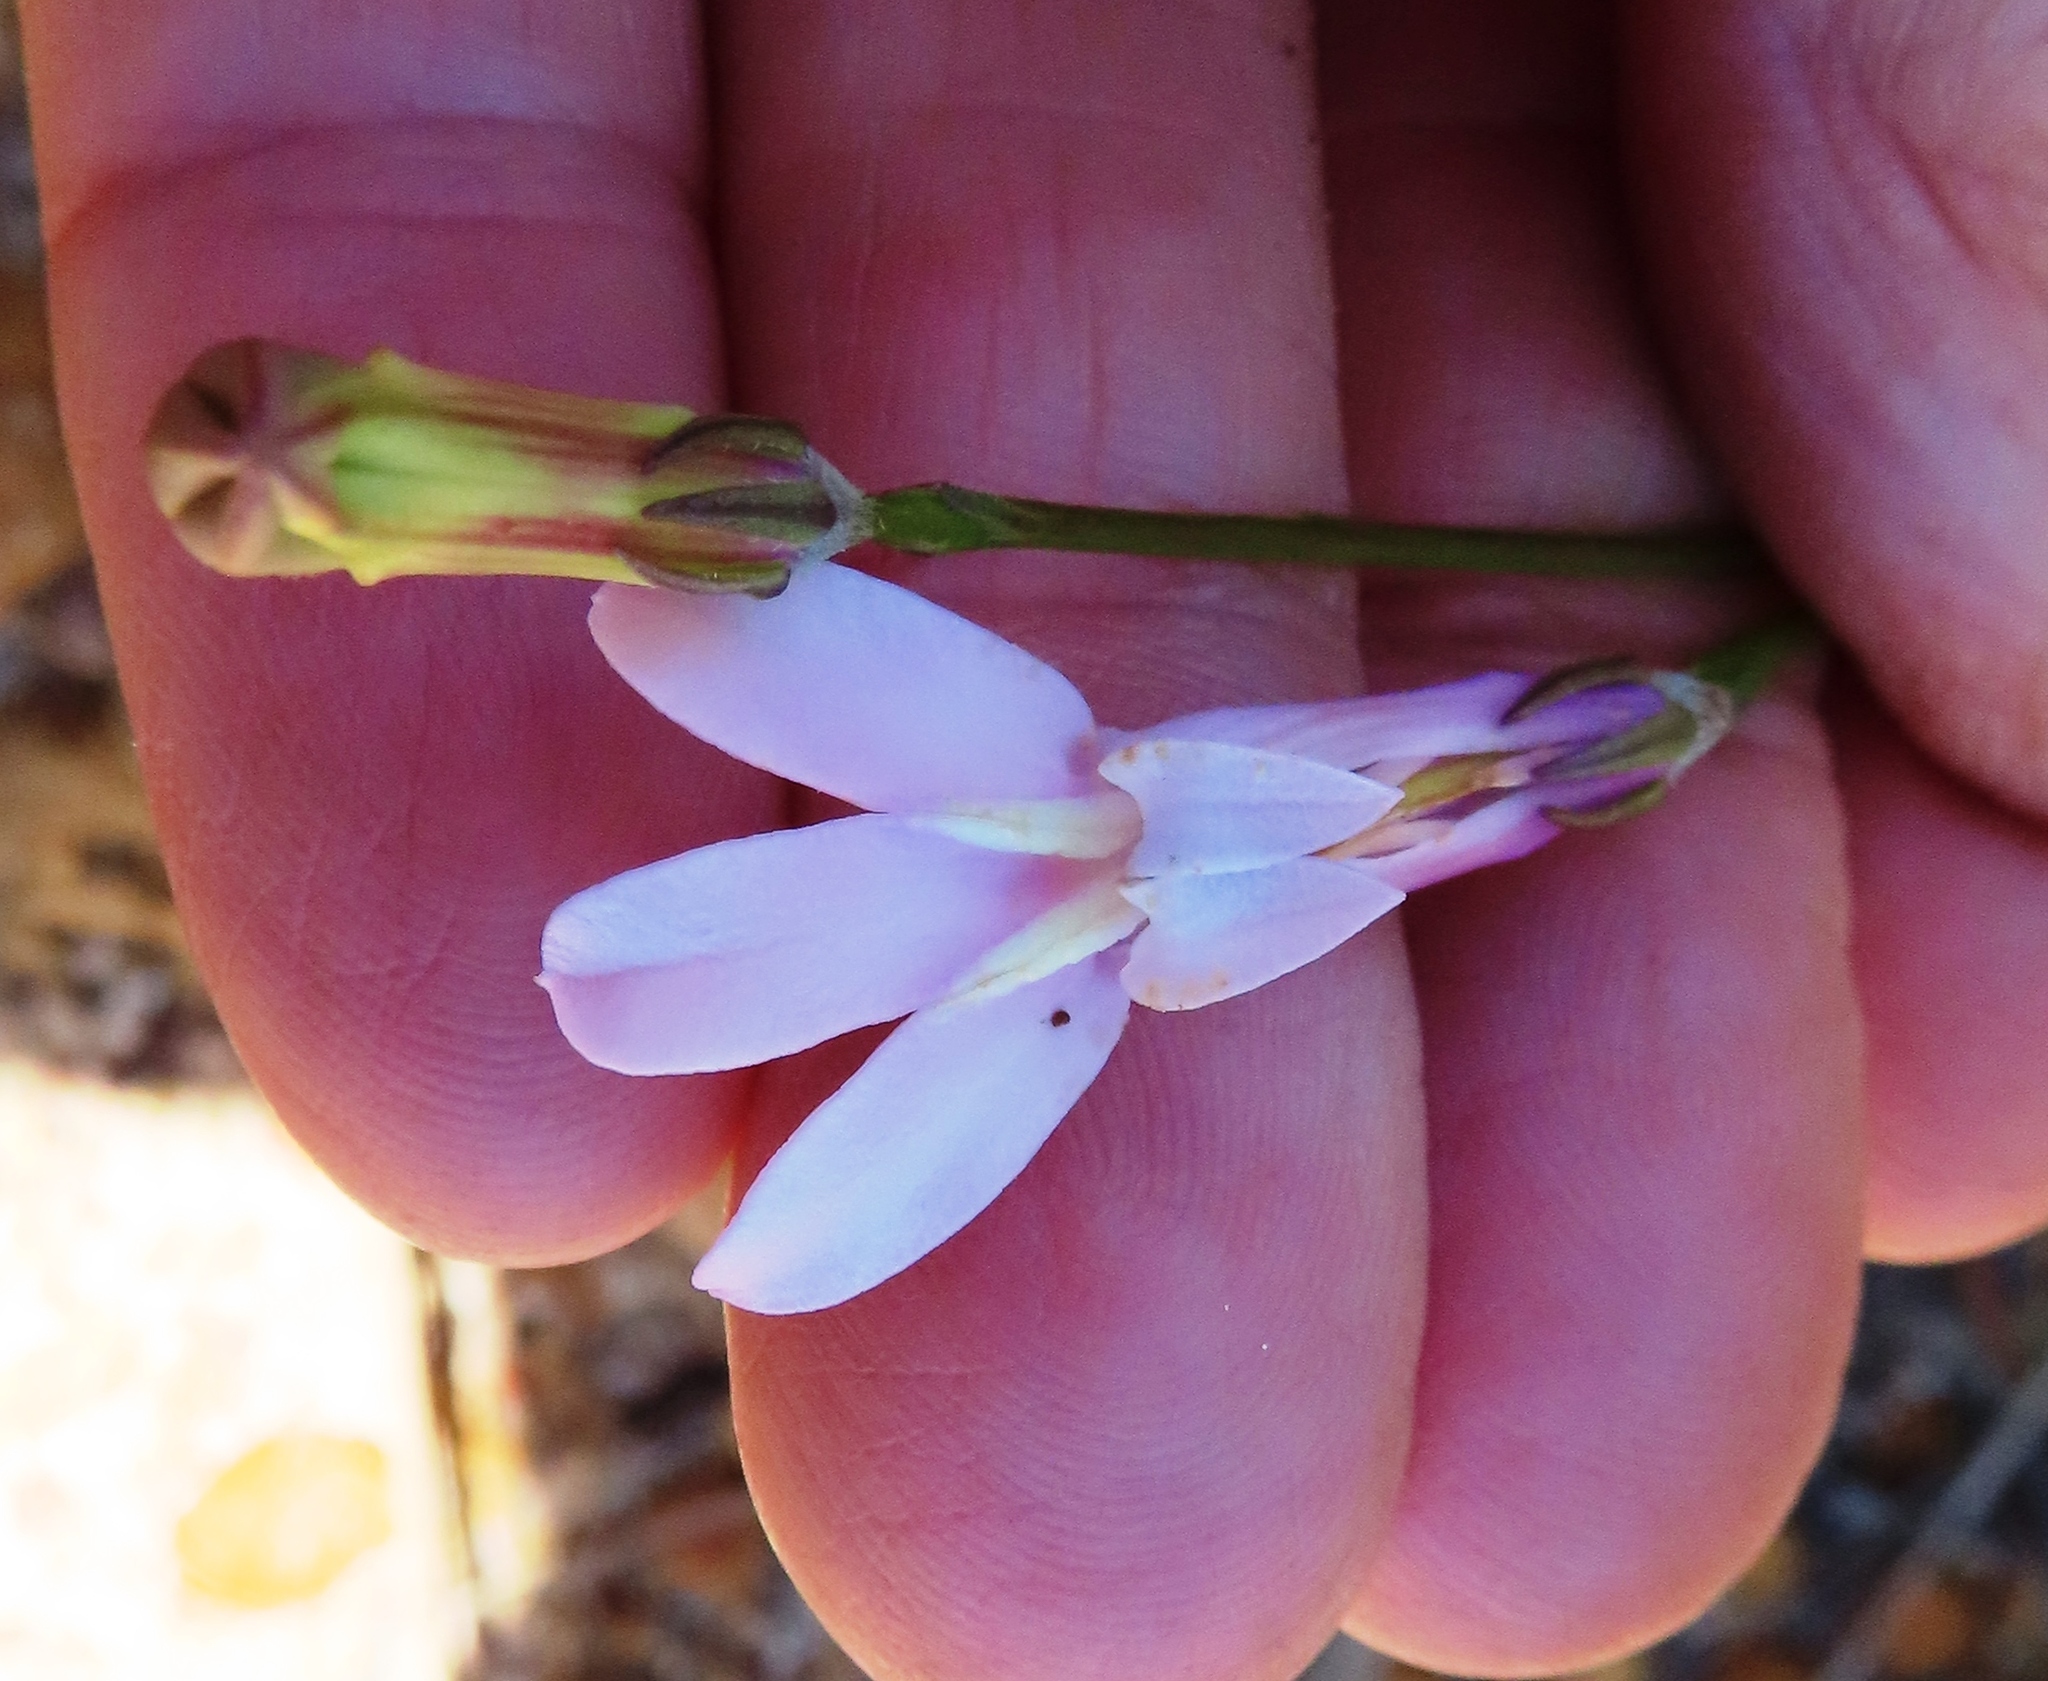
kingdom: Plantae
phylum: Tracheophyta
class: Magnoliopsida
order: Asterales
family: Campanulaceae
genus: Lobelia
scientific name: Lobelia coronopifolia
